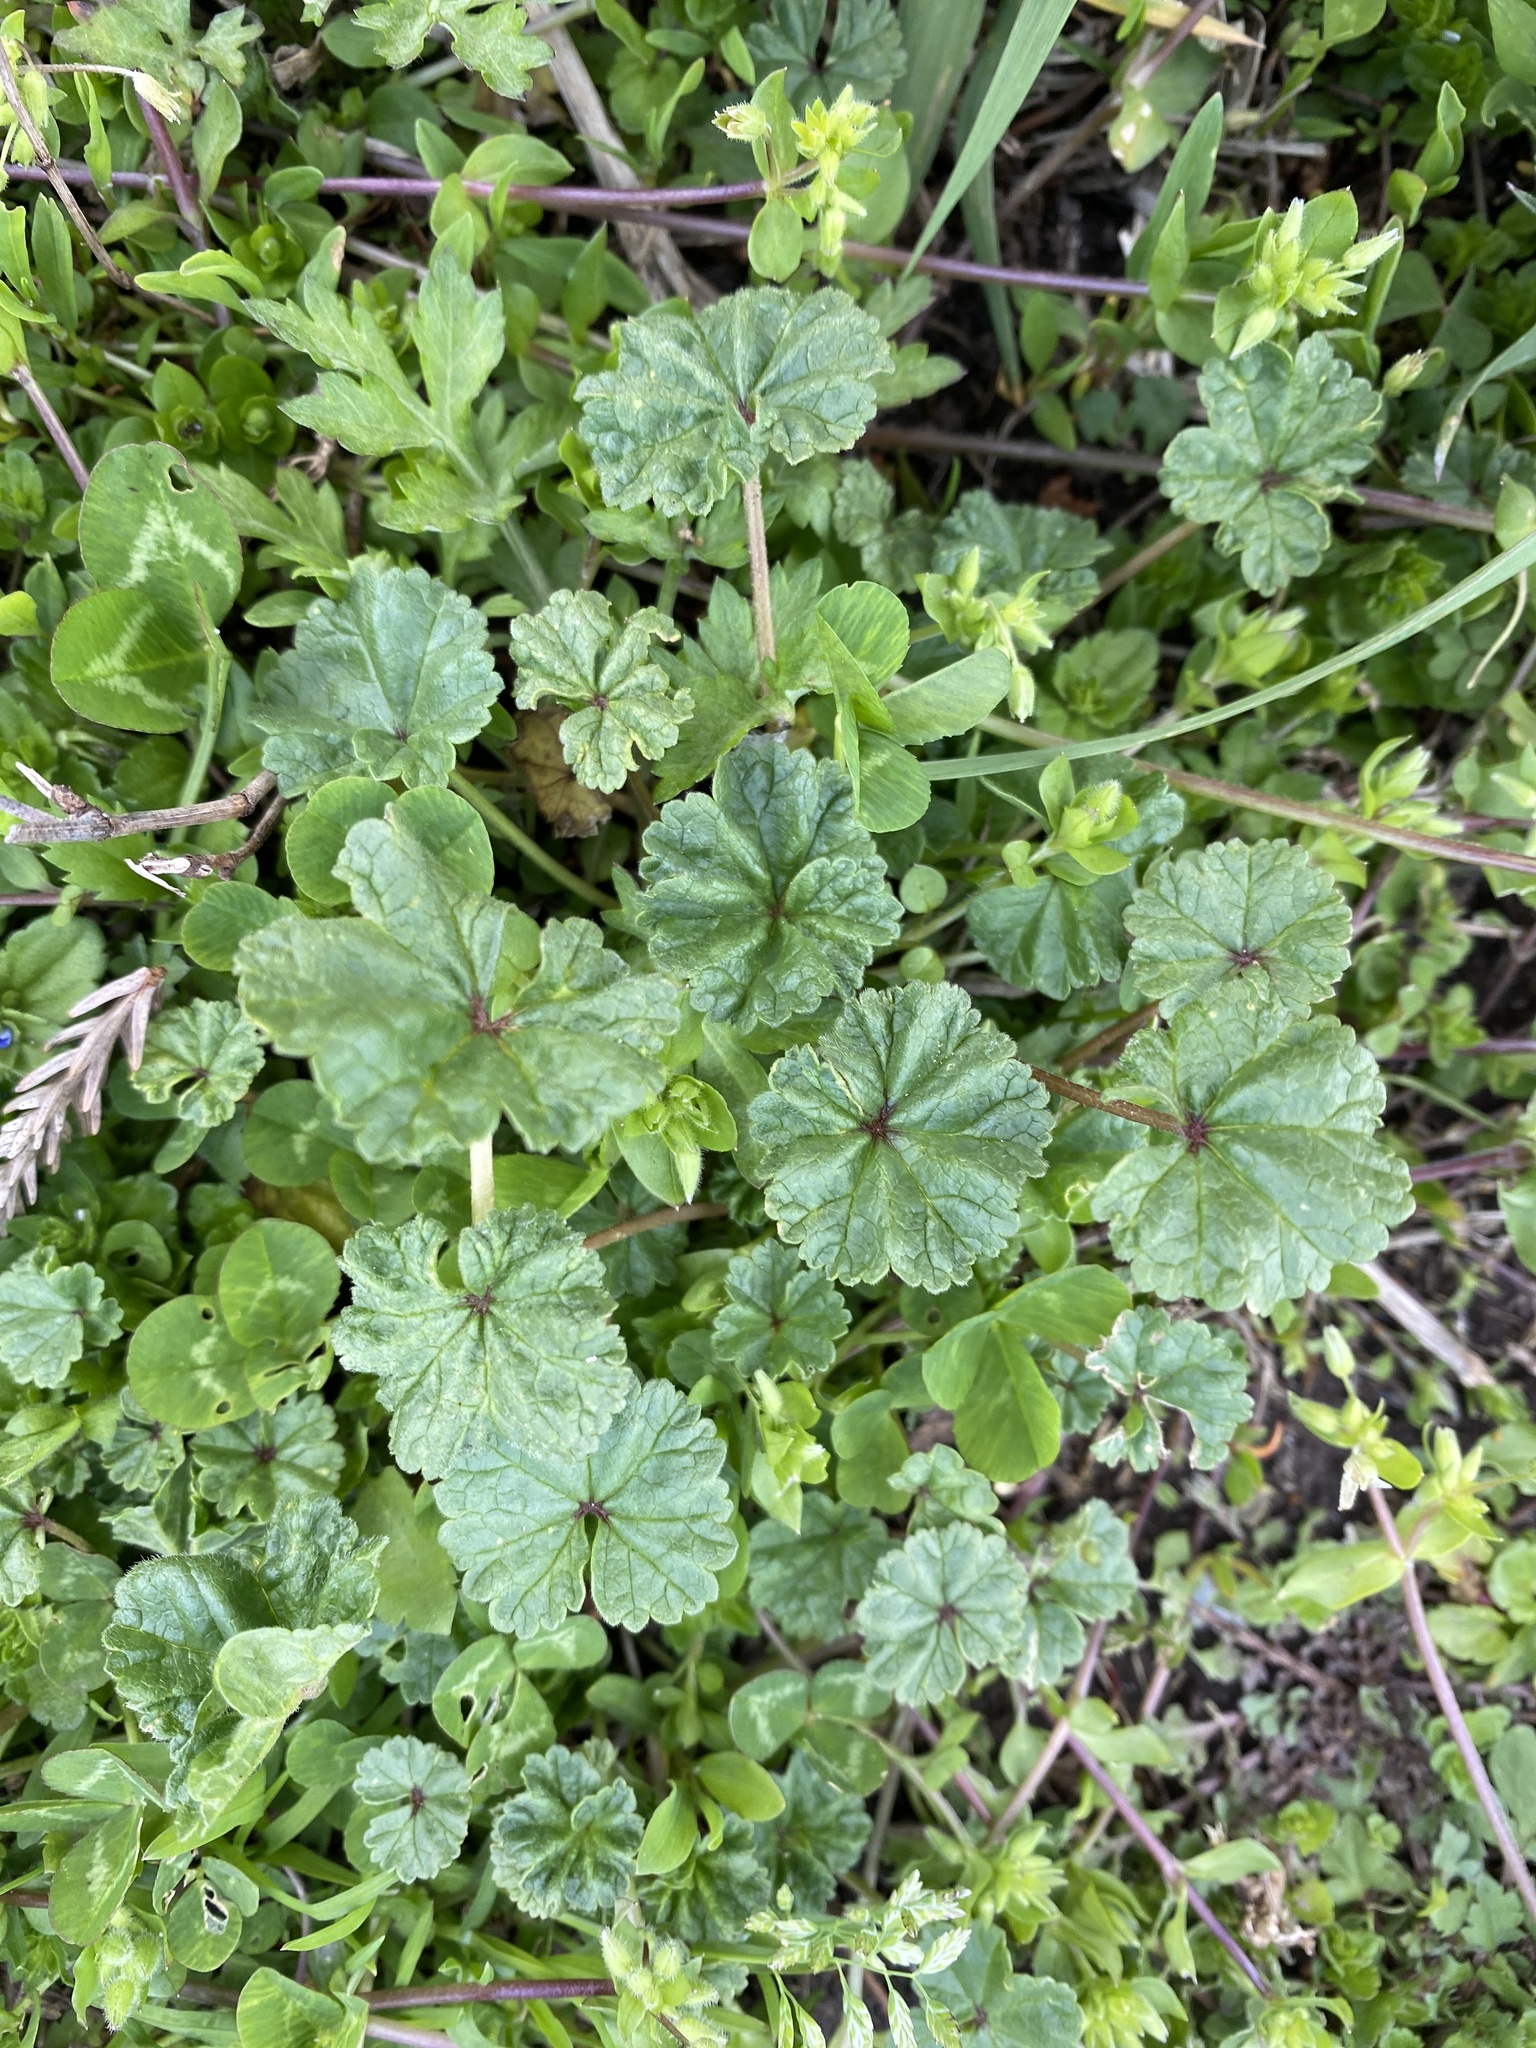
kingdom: Plantae
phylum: Tracheophyta
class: Magnoliopsida
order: Malvales
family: Malvaceae
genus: Malva
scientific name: Malva neglecta
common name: Common mallow
